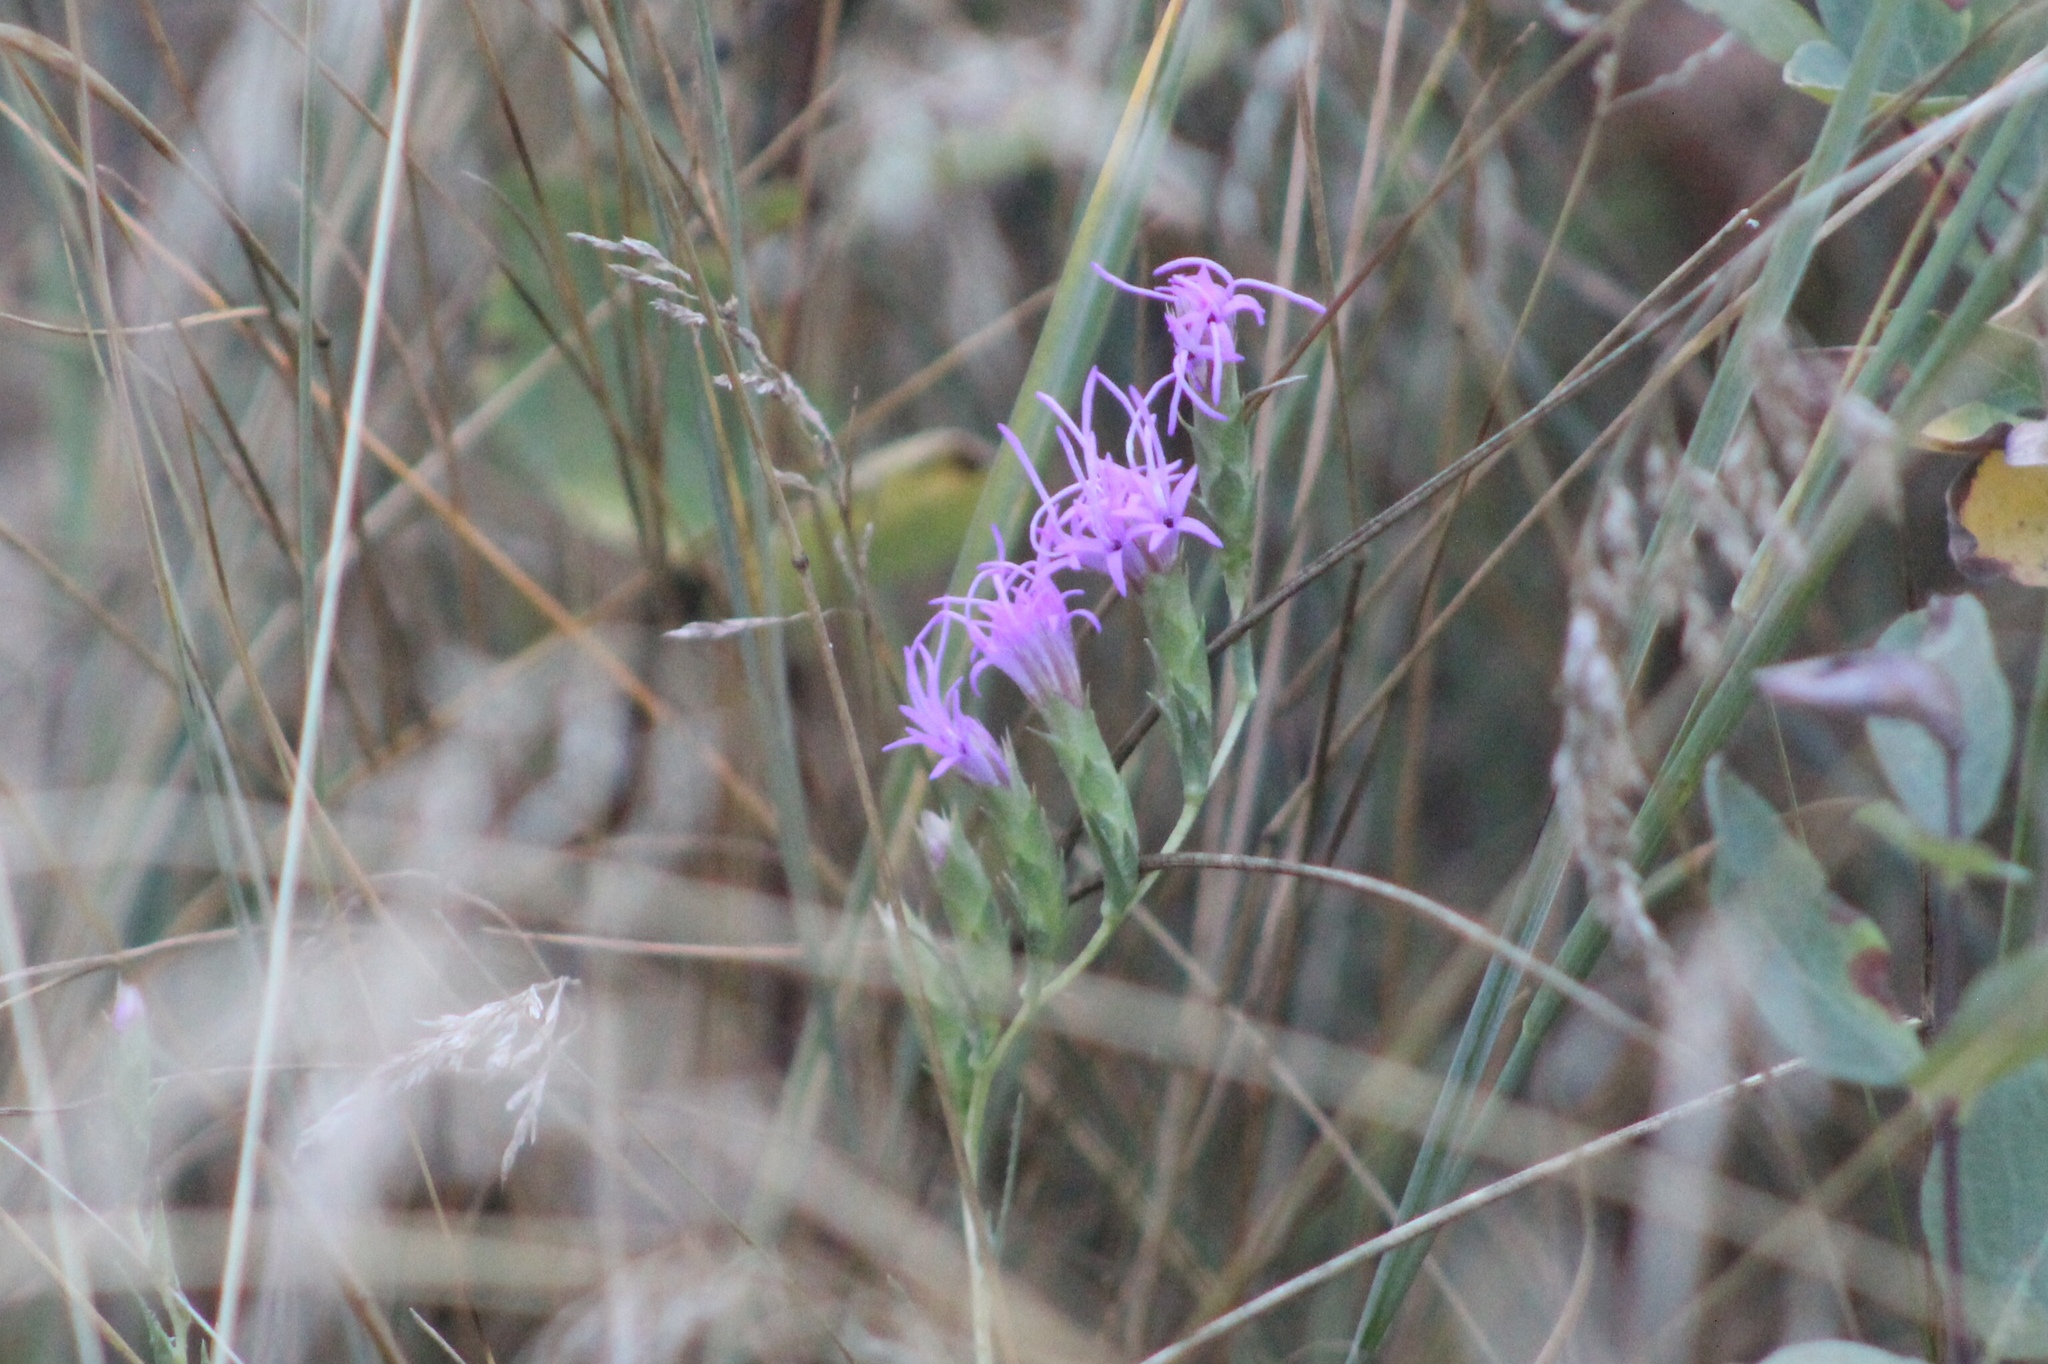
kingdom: Plantae
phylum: Tracheophyta
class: Magnoliopsida
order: Asterales
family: Asteraceae
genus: Liatris
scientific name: Liatris punctata
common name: Dotted gayfeather
